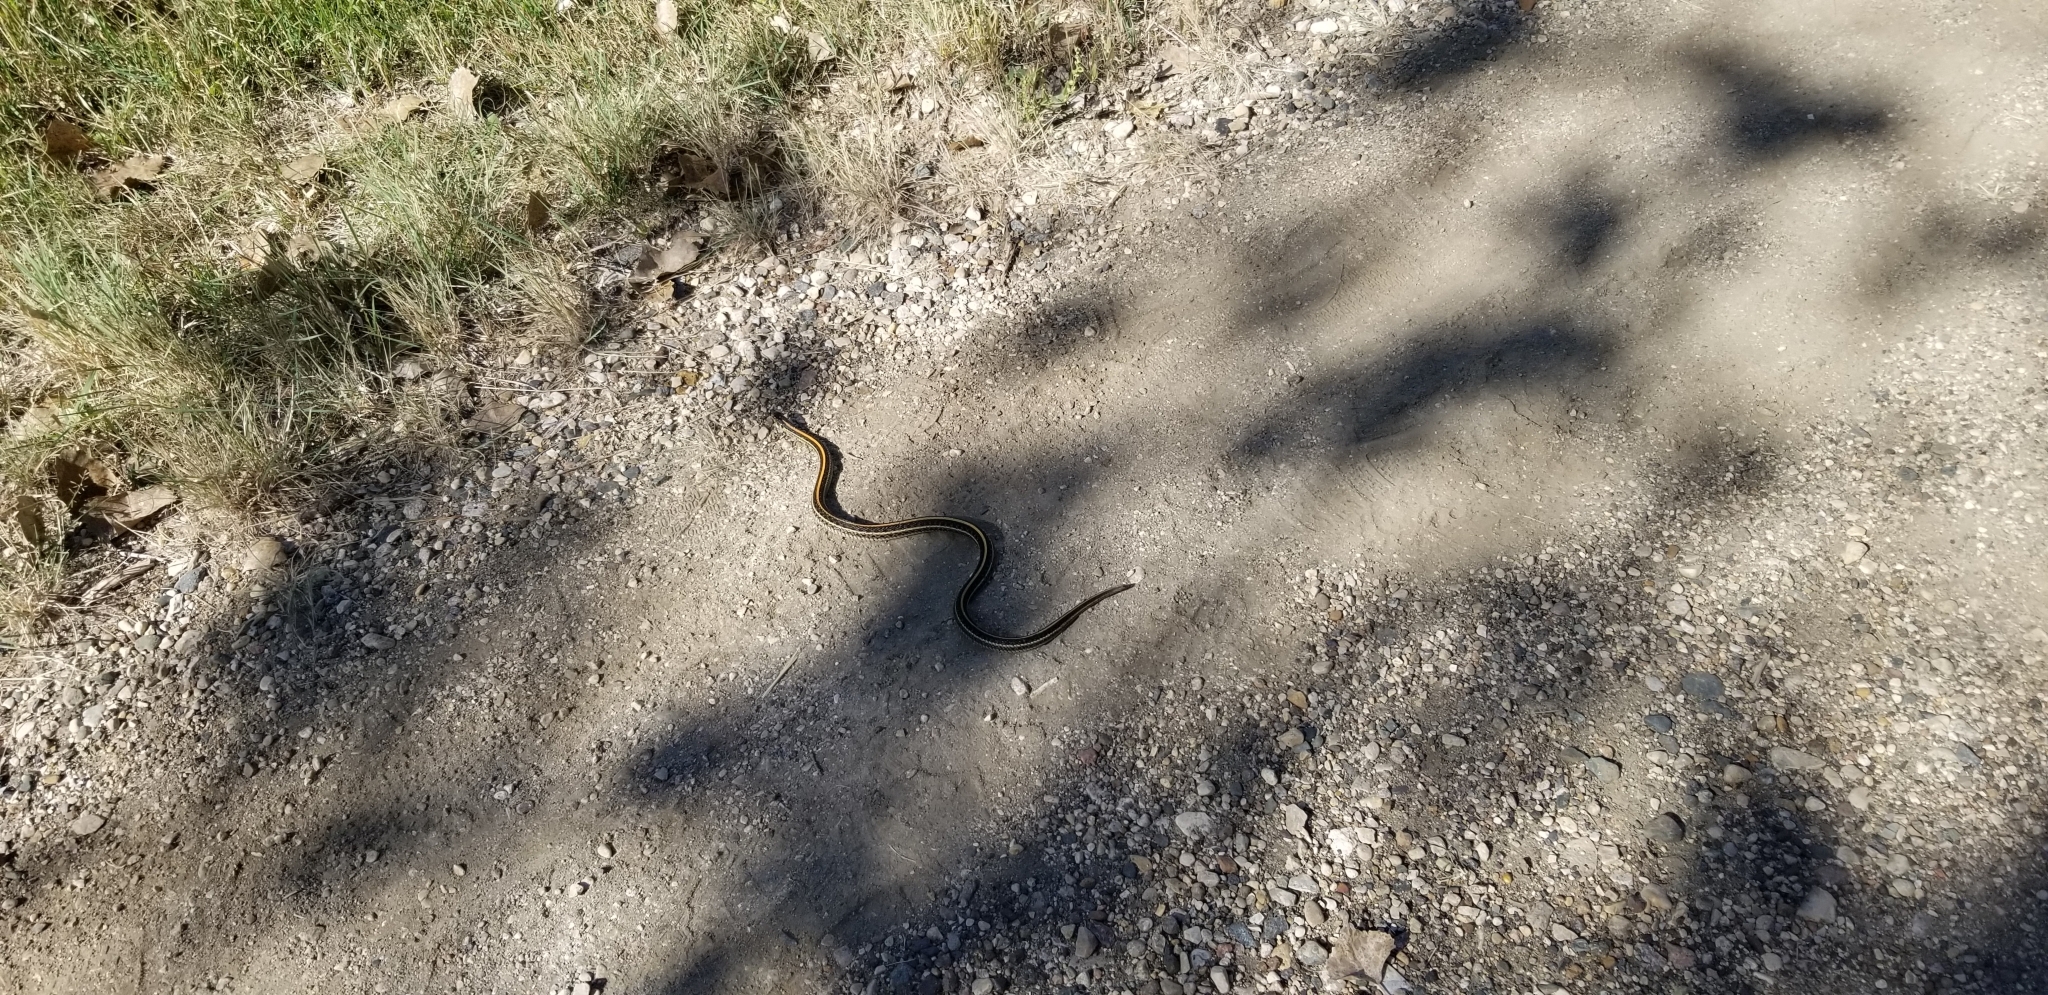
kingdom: Animalia
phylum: Chordata
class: Squamata
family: Colubridae
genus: Thamnophis
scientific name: Thamnophis radix
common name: Plains garter snake
